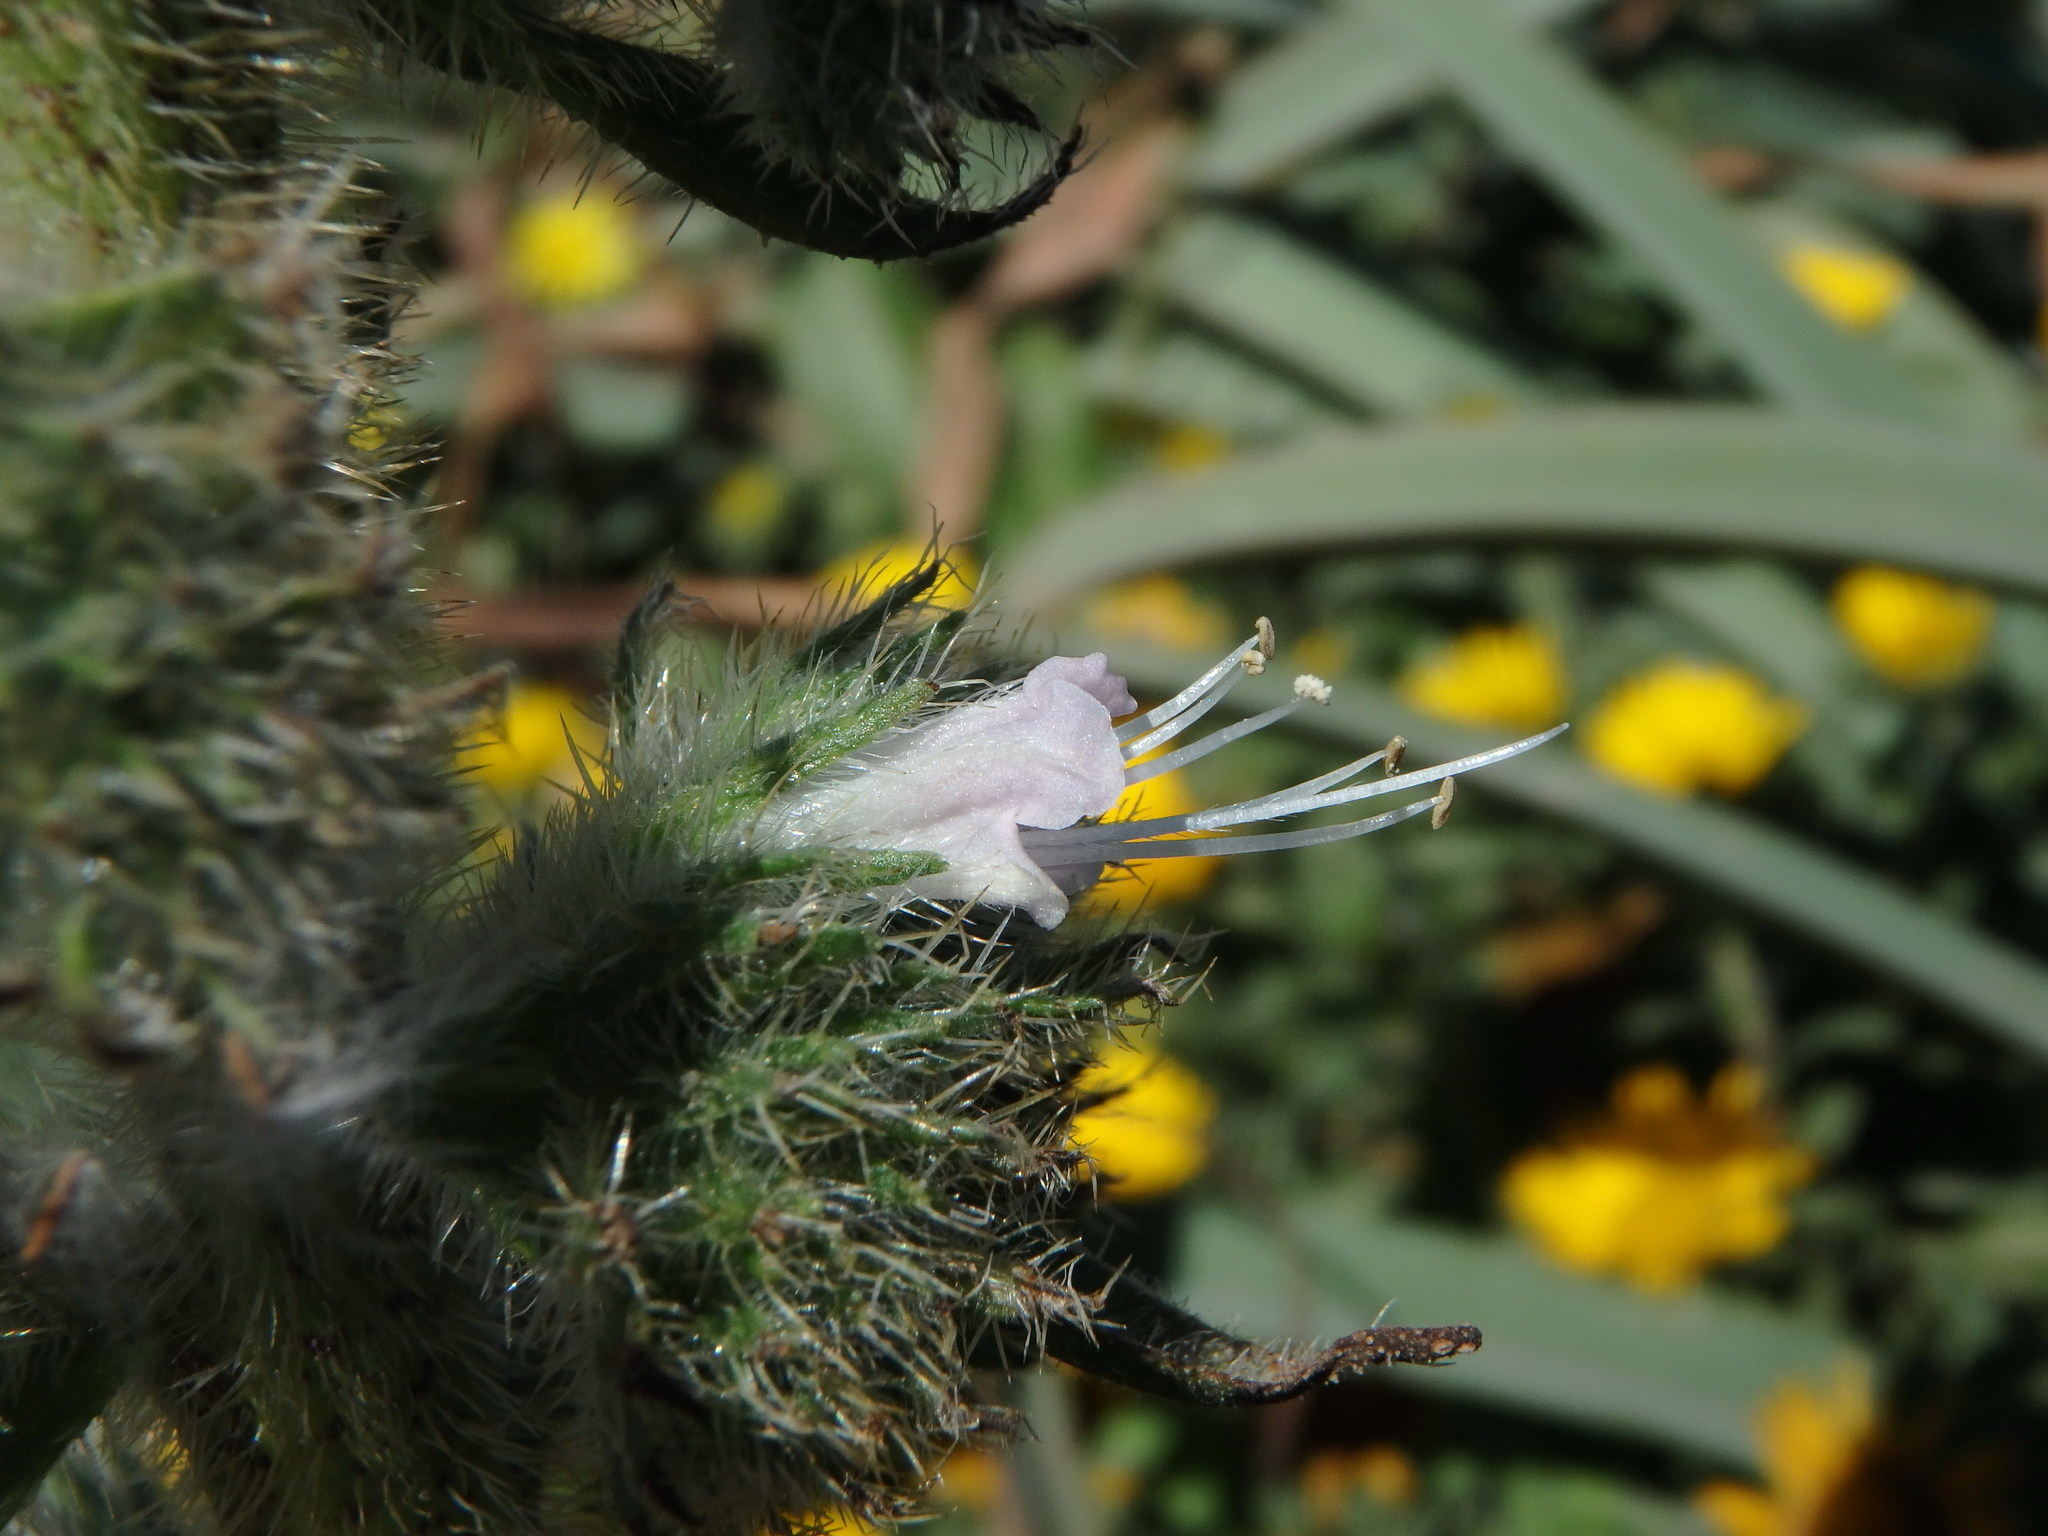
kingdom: Plantae
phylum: Tracheophyta
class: Magnoliopsida
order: Boraginales
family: Boraginaceae
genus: Echium
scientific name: Echium italicum
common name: Italian viper's bugloss
